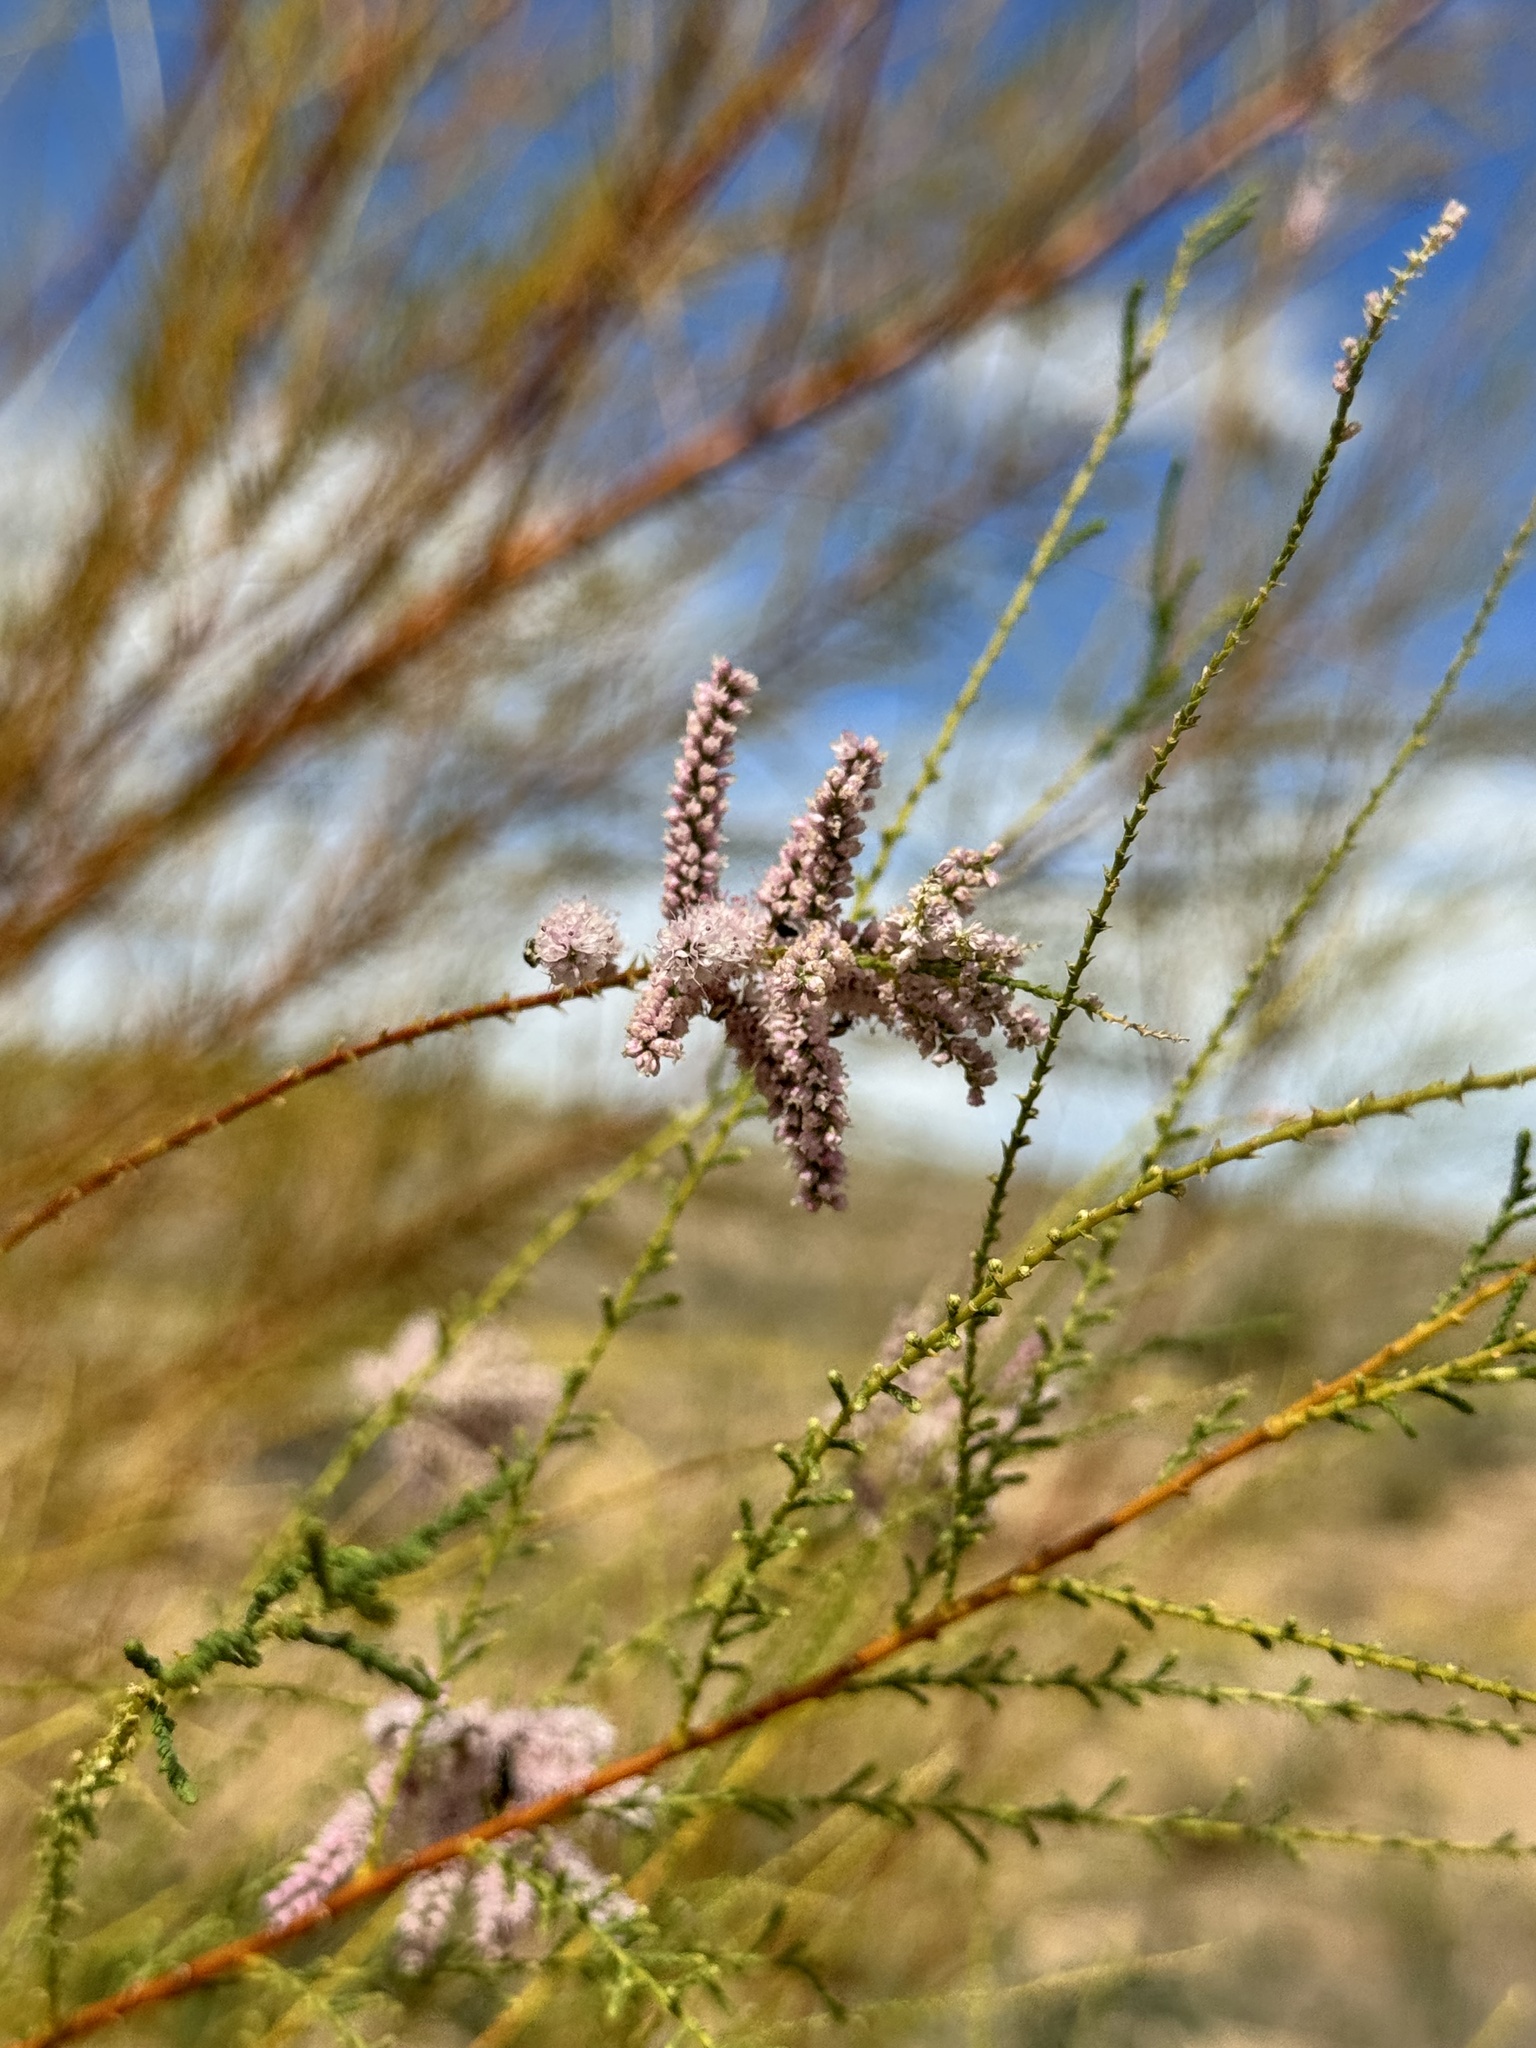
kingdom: Plantae
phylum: Tracheophyta
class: Magnoliopsida
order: Caryophyllales
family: Tamaricaceae
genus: Tamarix
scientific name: Tamarix
